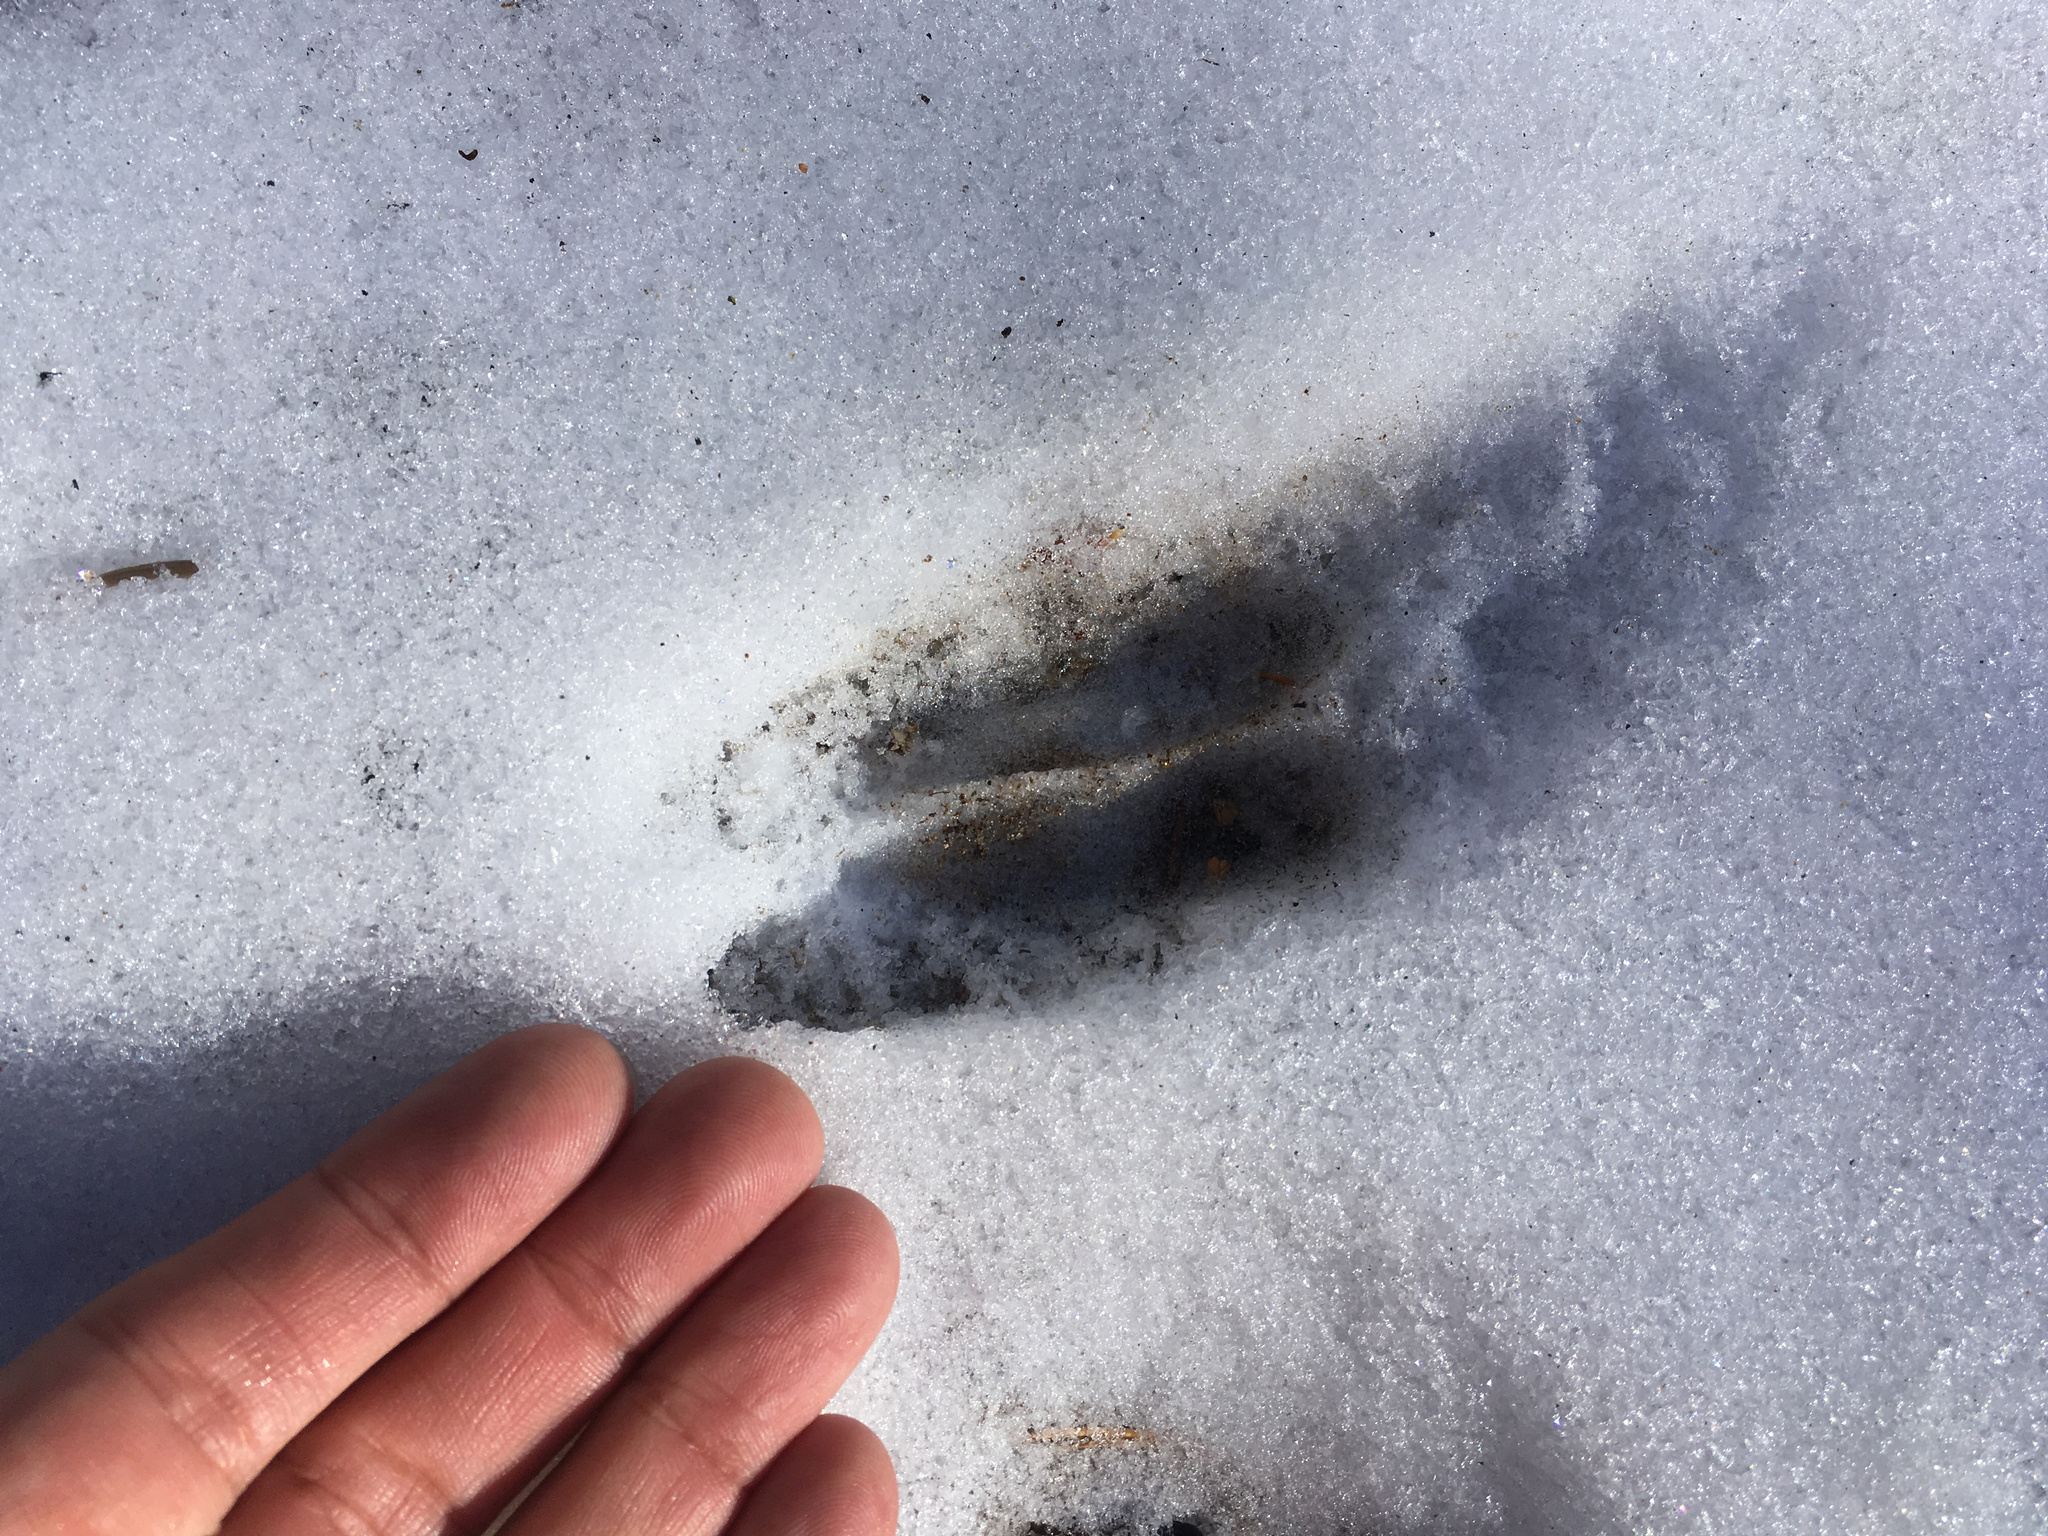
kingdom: Animalia
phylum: Chordata
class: Mammalia
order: Artiodactyla
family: Cervidae
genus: Odocoileus
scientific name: Odocoileus hemionus
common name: Mule deer
